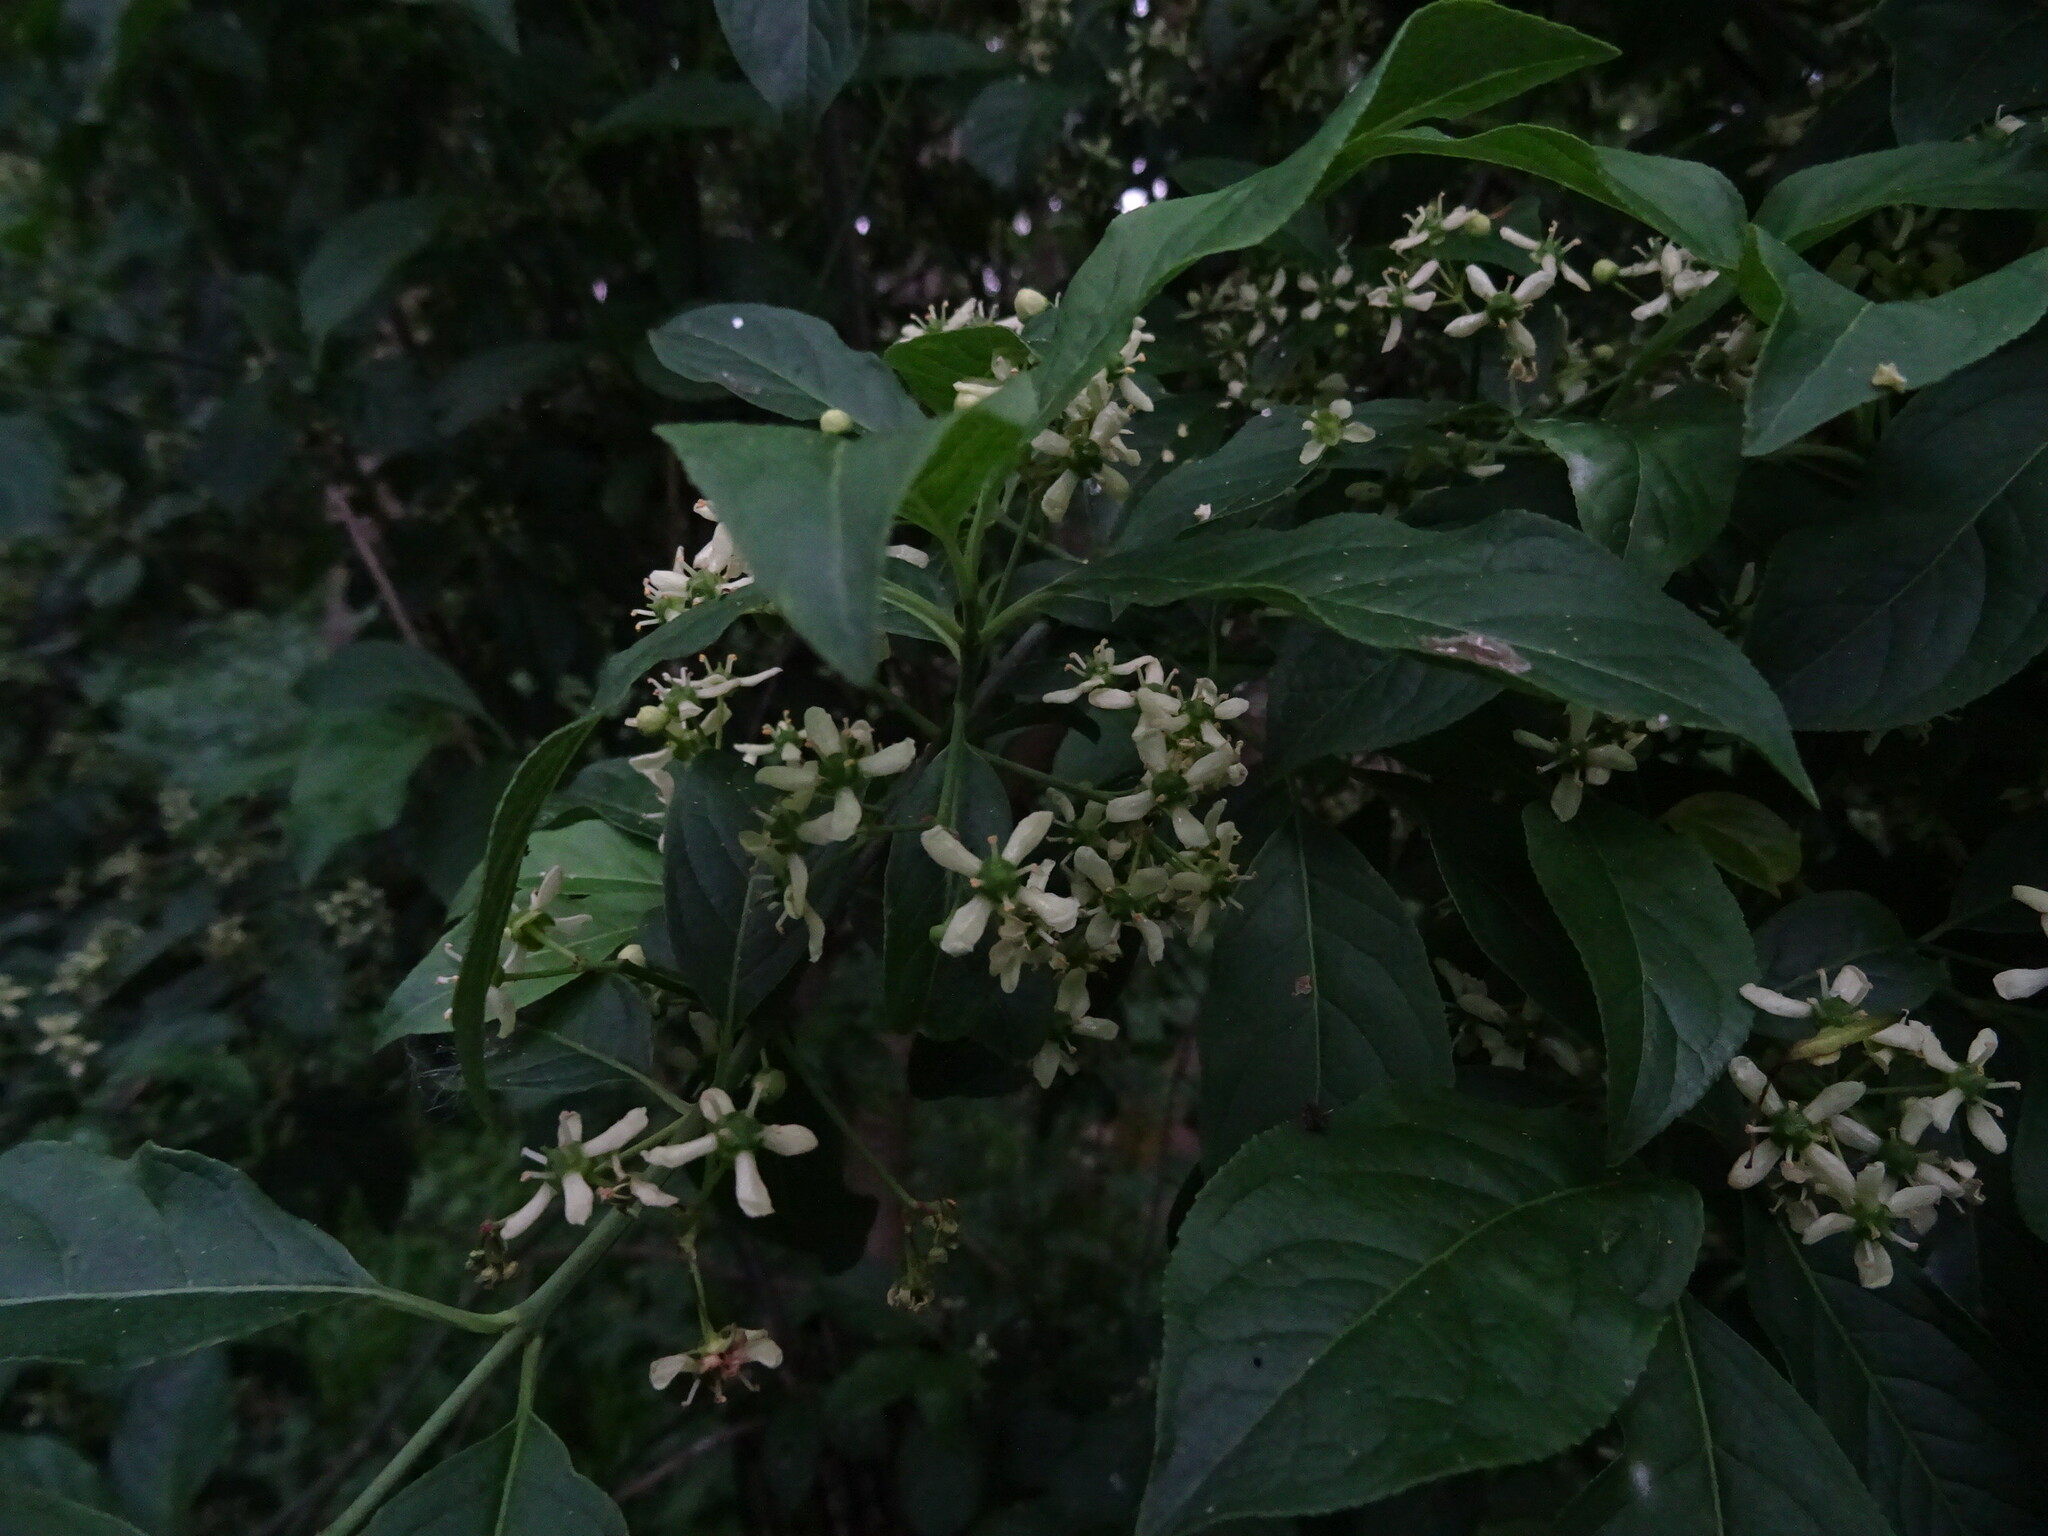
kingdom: Plantae
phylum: Tracheophyta
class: Magnoliopsida
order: Celastrales
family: Celastraceae
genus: Euonymus
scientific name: Euonymus europaeus
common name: Spindle
